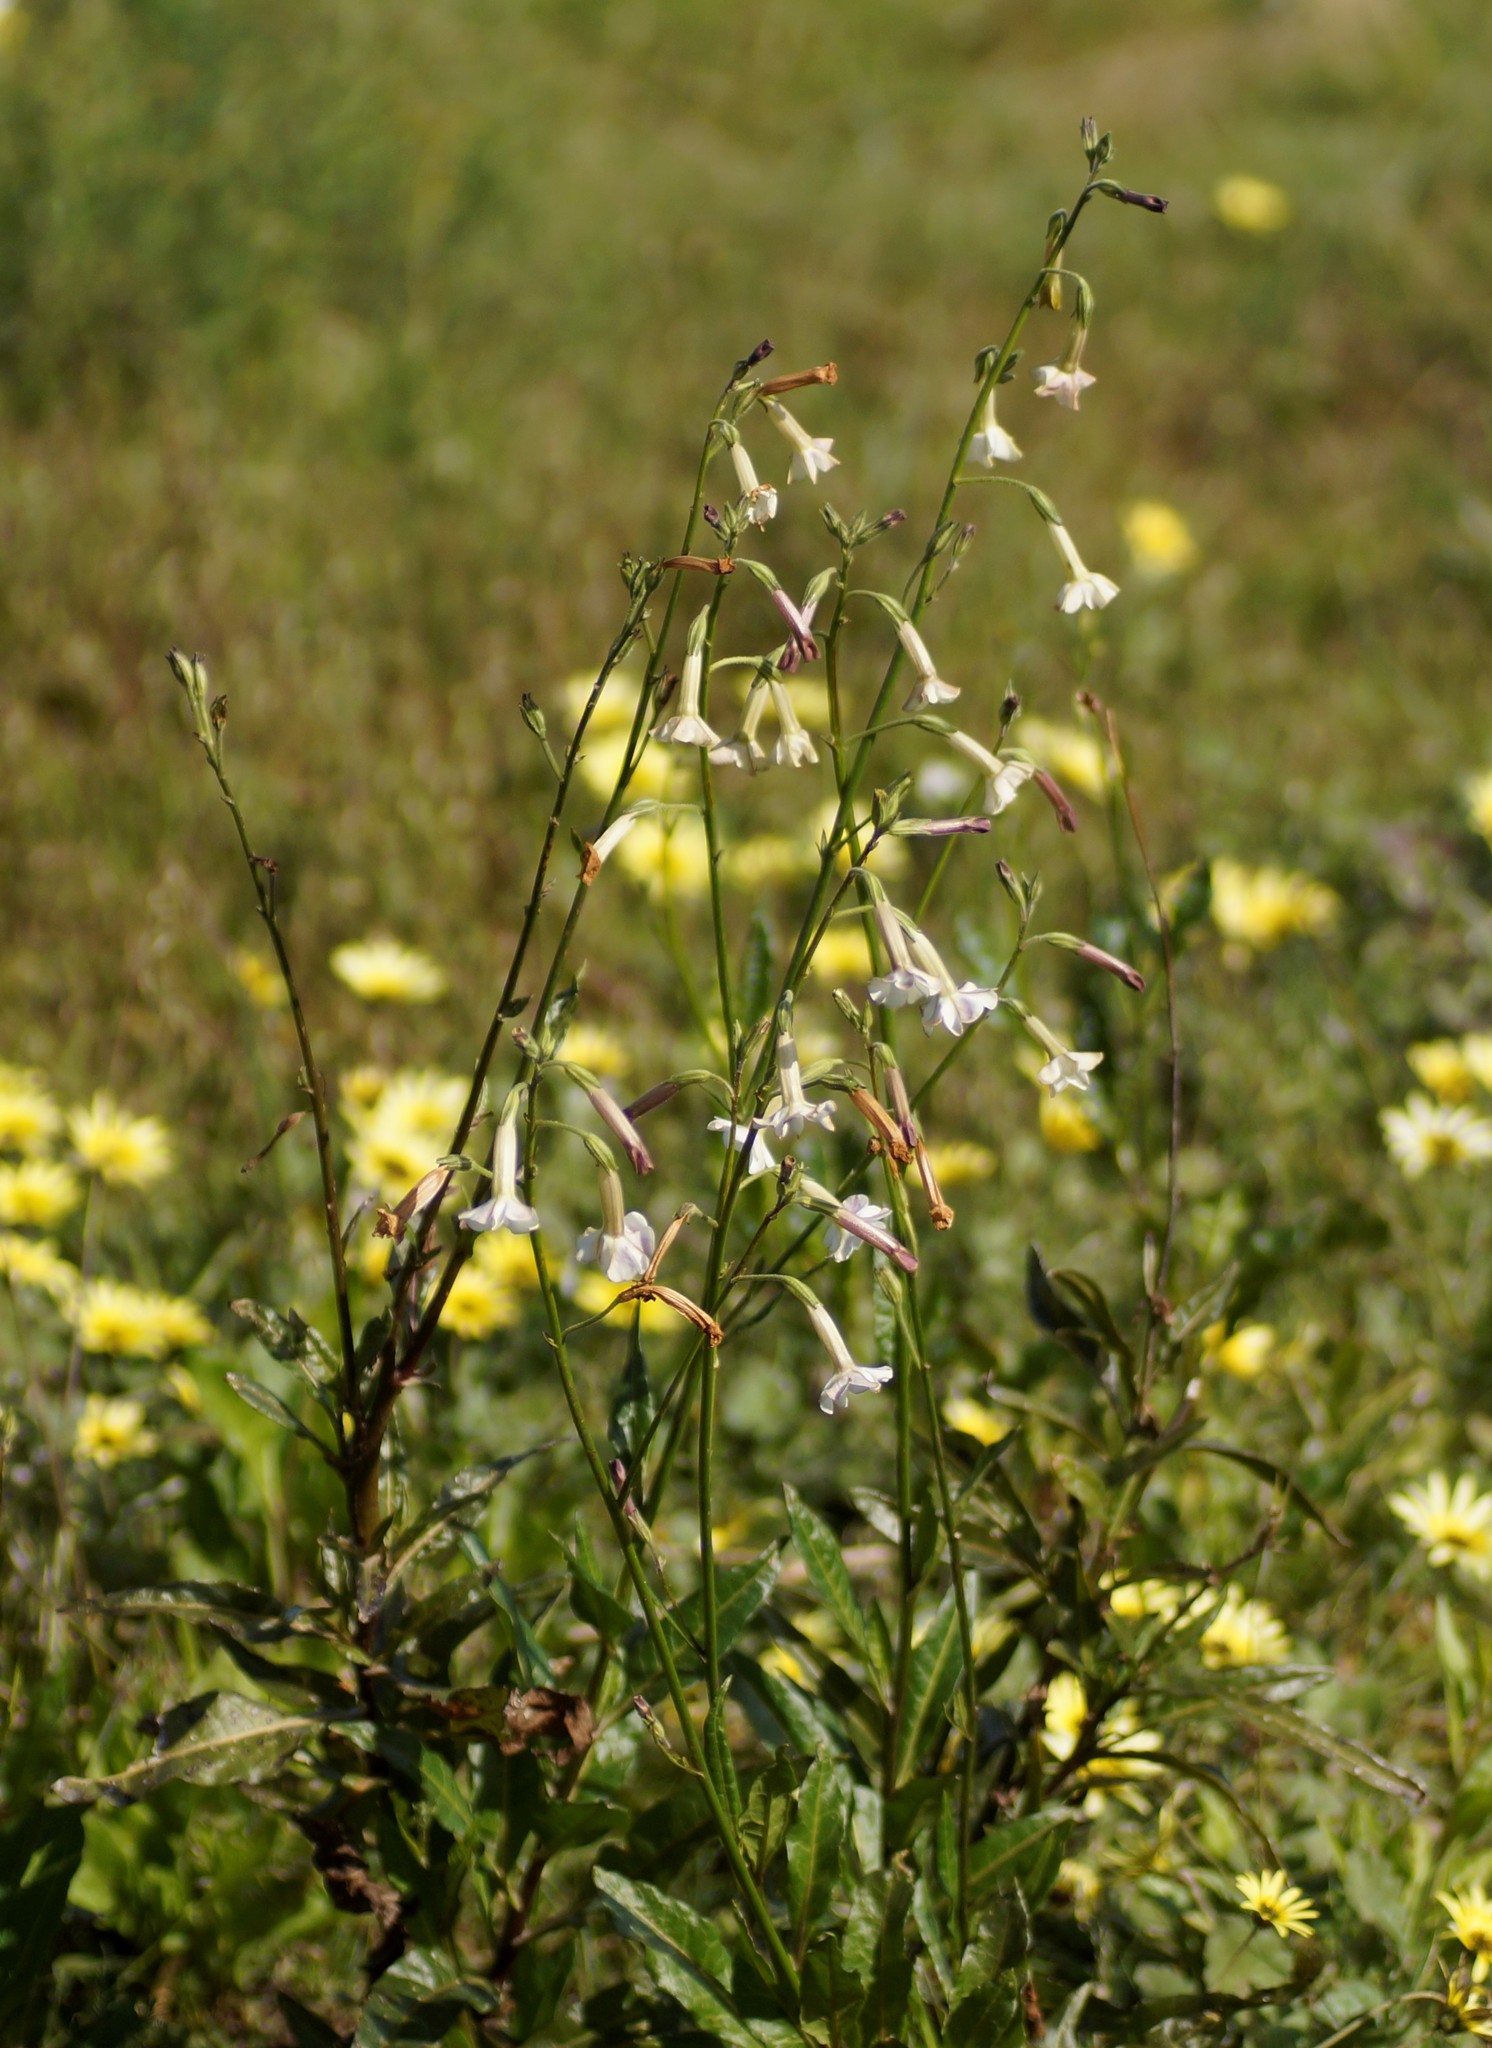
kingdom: Plantae
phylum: Tracheophyta
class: Magnoliopsida
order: Solanales
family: Solanaceae
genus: Nicotiana
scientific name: Nicotiana suaveolens
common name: Australian tobacco
